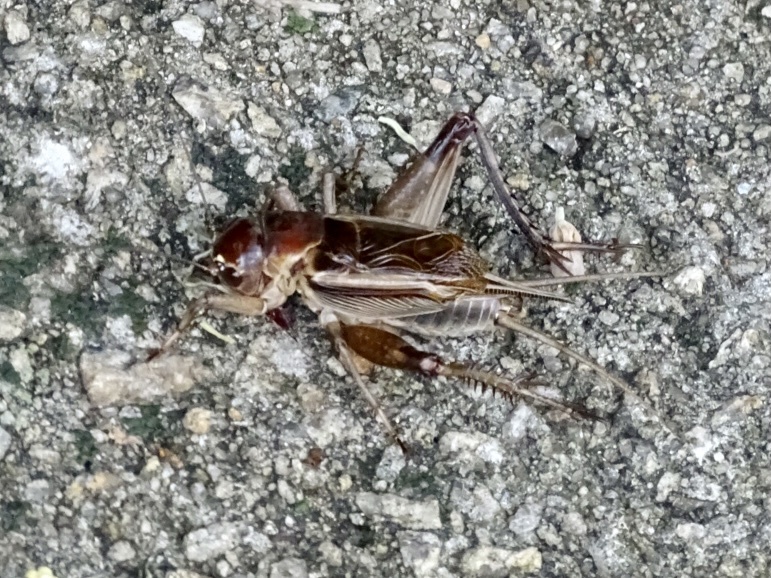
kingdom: Animalia
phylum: Arthropoda
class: Insecta
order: Orthoptera
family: Gryllidae
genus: Teleogryllus
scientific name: Teleogryllus mitratus
